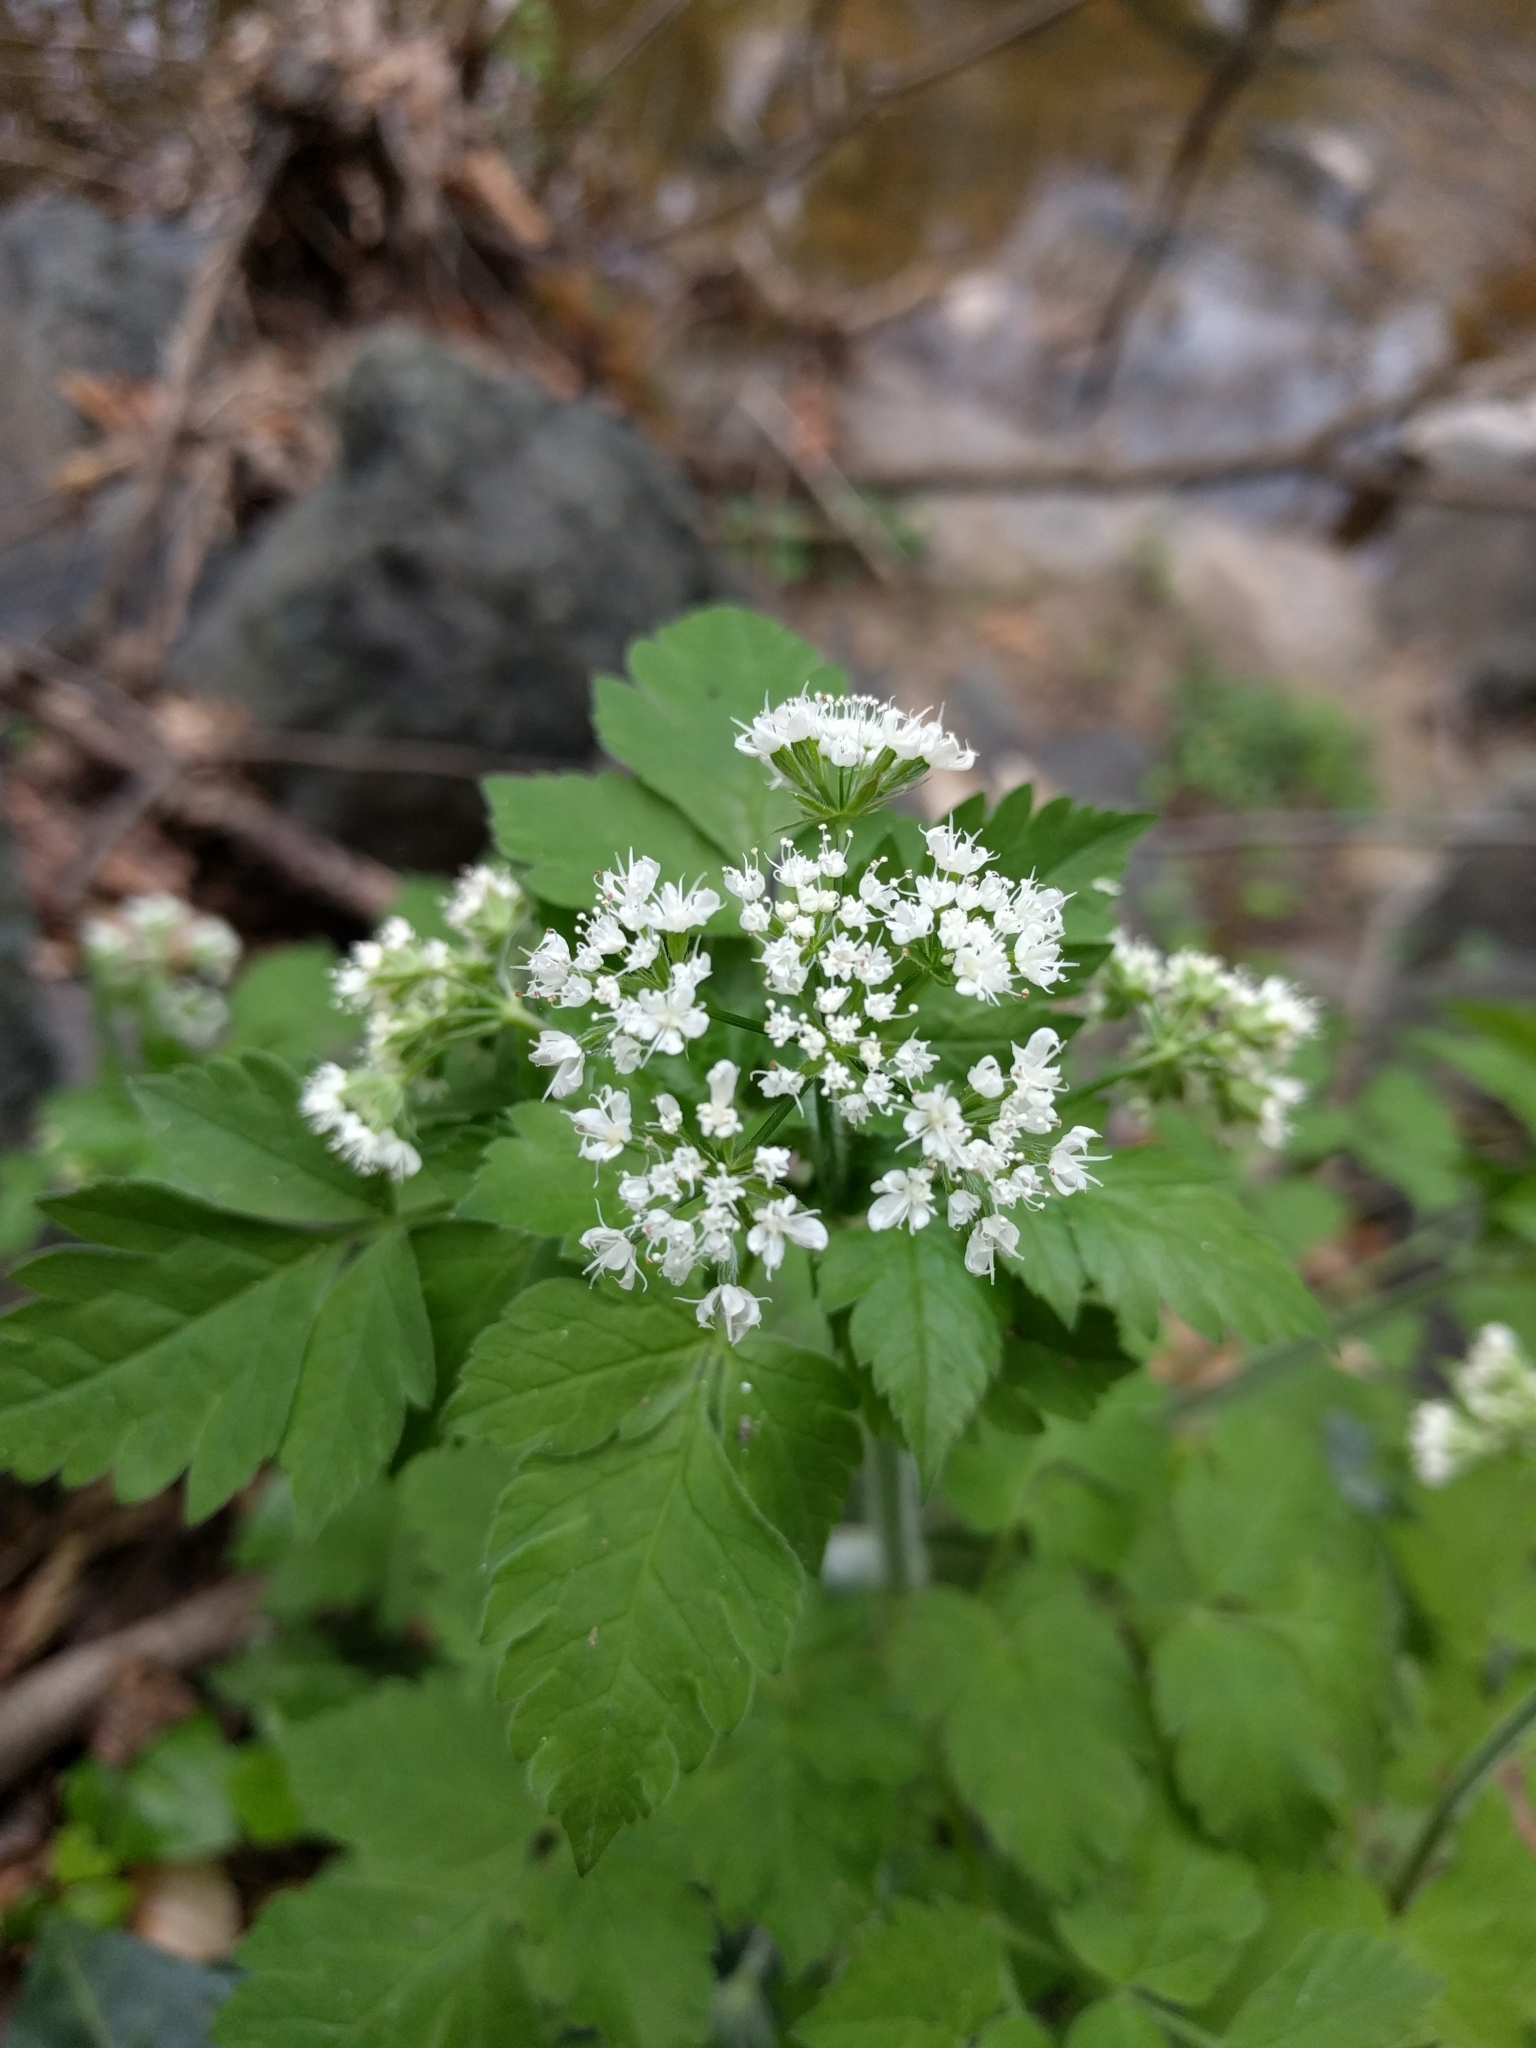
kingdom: Plantae
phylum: Tracheophyta
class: Magnoliopsida
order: Apiales
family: Apiaceae
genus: Osmorhiza
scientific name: Osmorhiza longistylis
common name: Smooth sweet cicely
